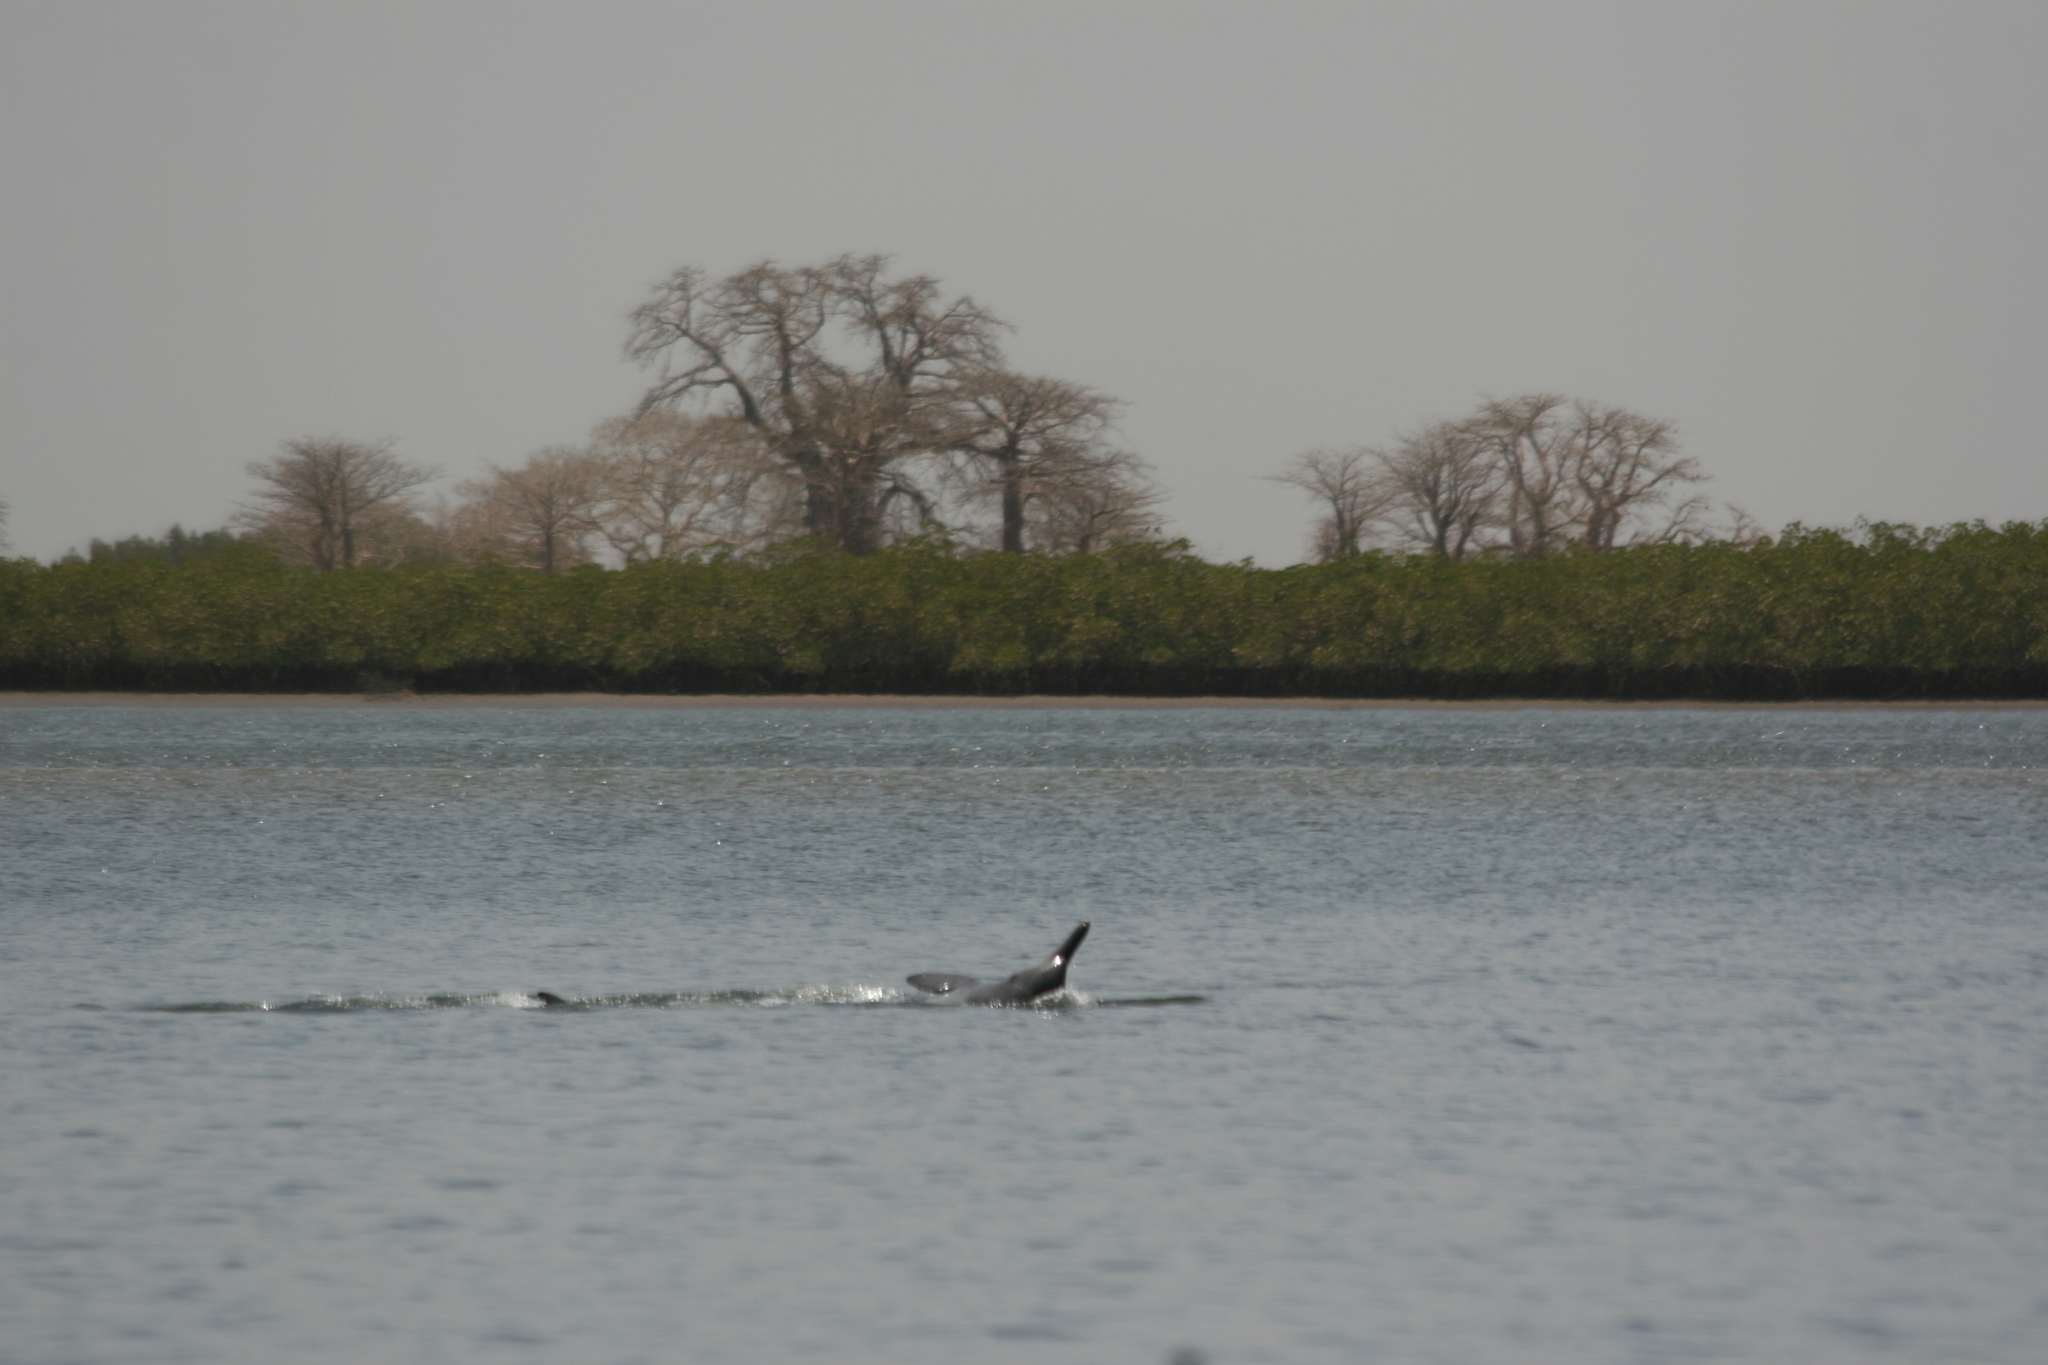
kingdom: Animalia
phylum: Chordata
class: Mammalia
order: Cetacea
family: Delphinidae
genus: Sousa
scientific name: Sousa teuszii
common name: Atlantic humpbacked dolphin
